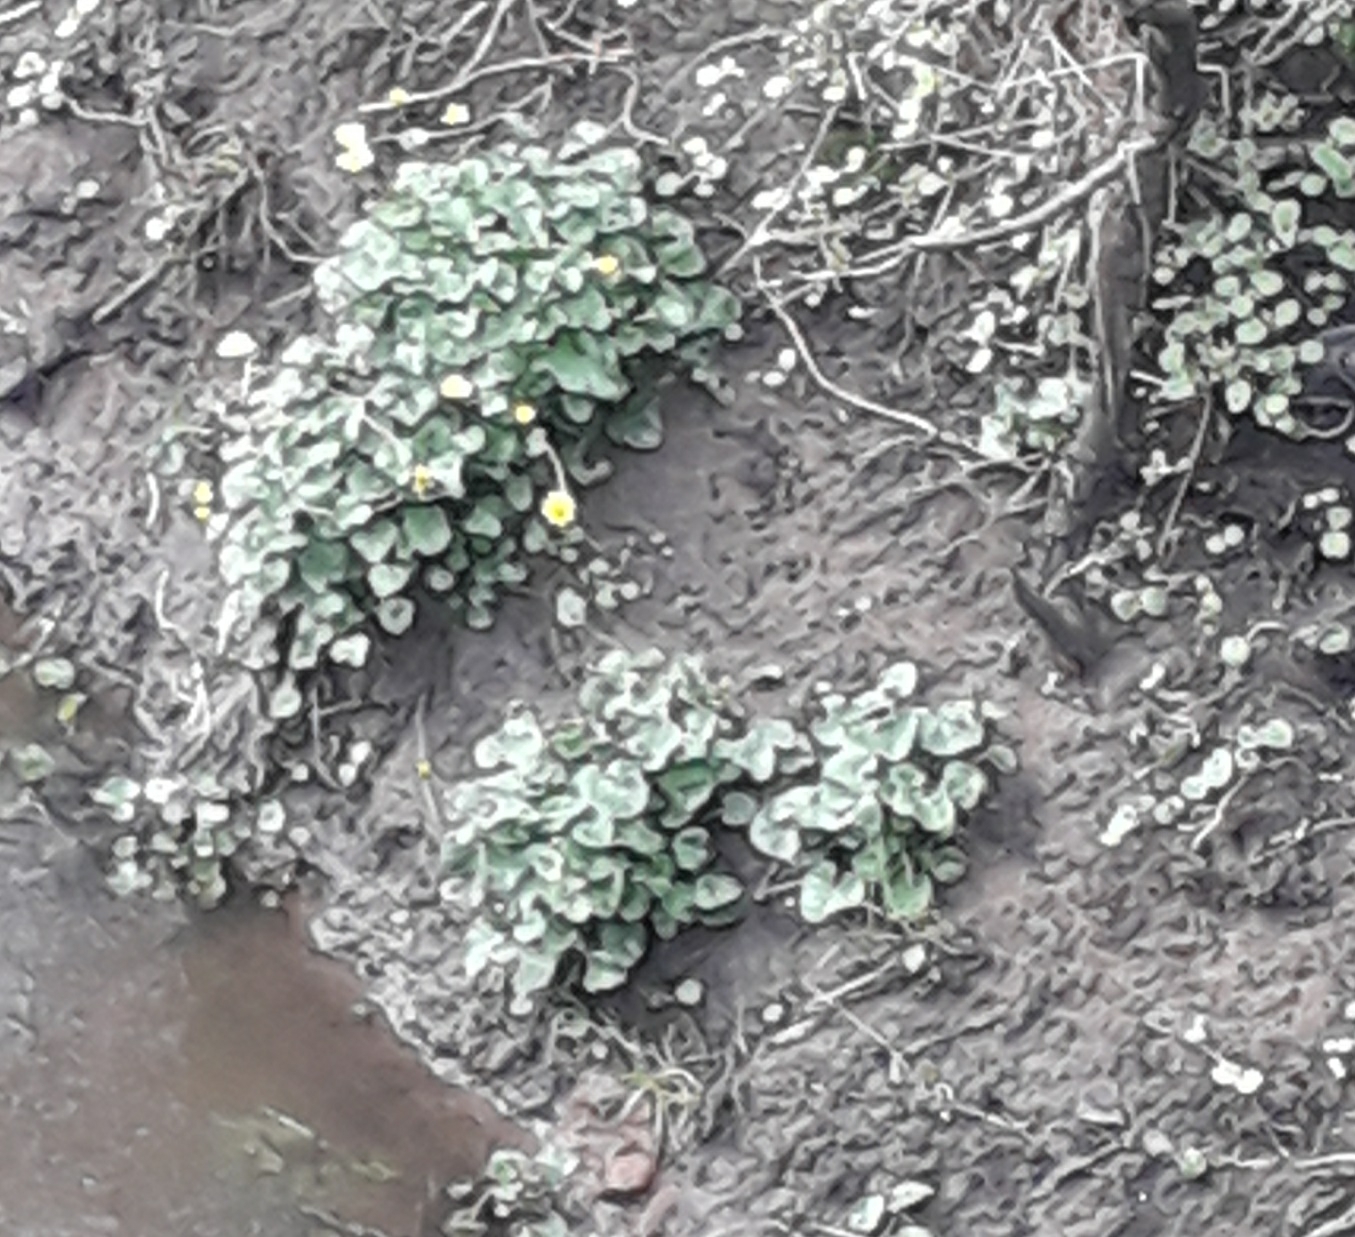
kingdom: Plantae
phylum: Tracheophyta
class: Magnoliopsida
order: Ranunculales
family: Ranunculaceae
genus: Ficaria
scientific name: Ficaria verna
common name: Lesser celandine
